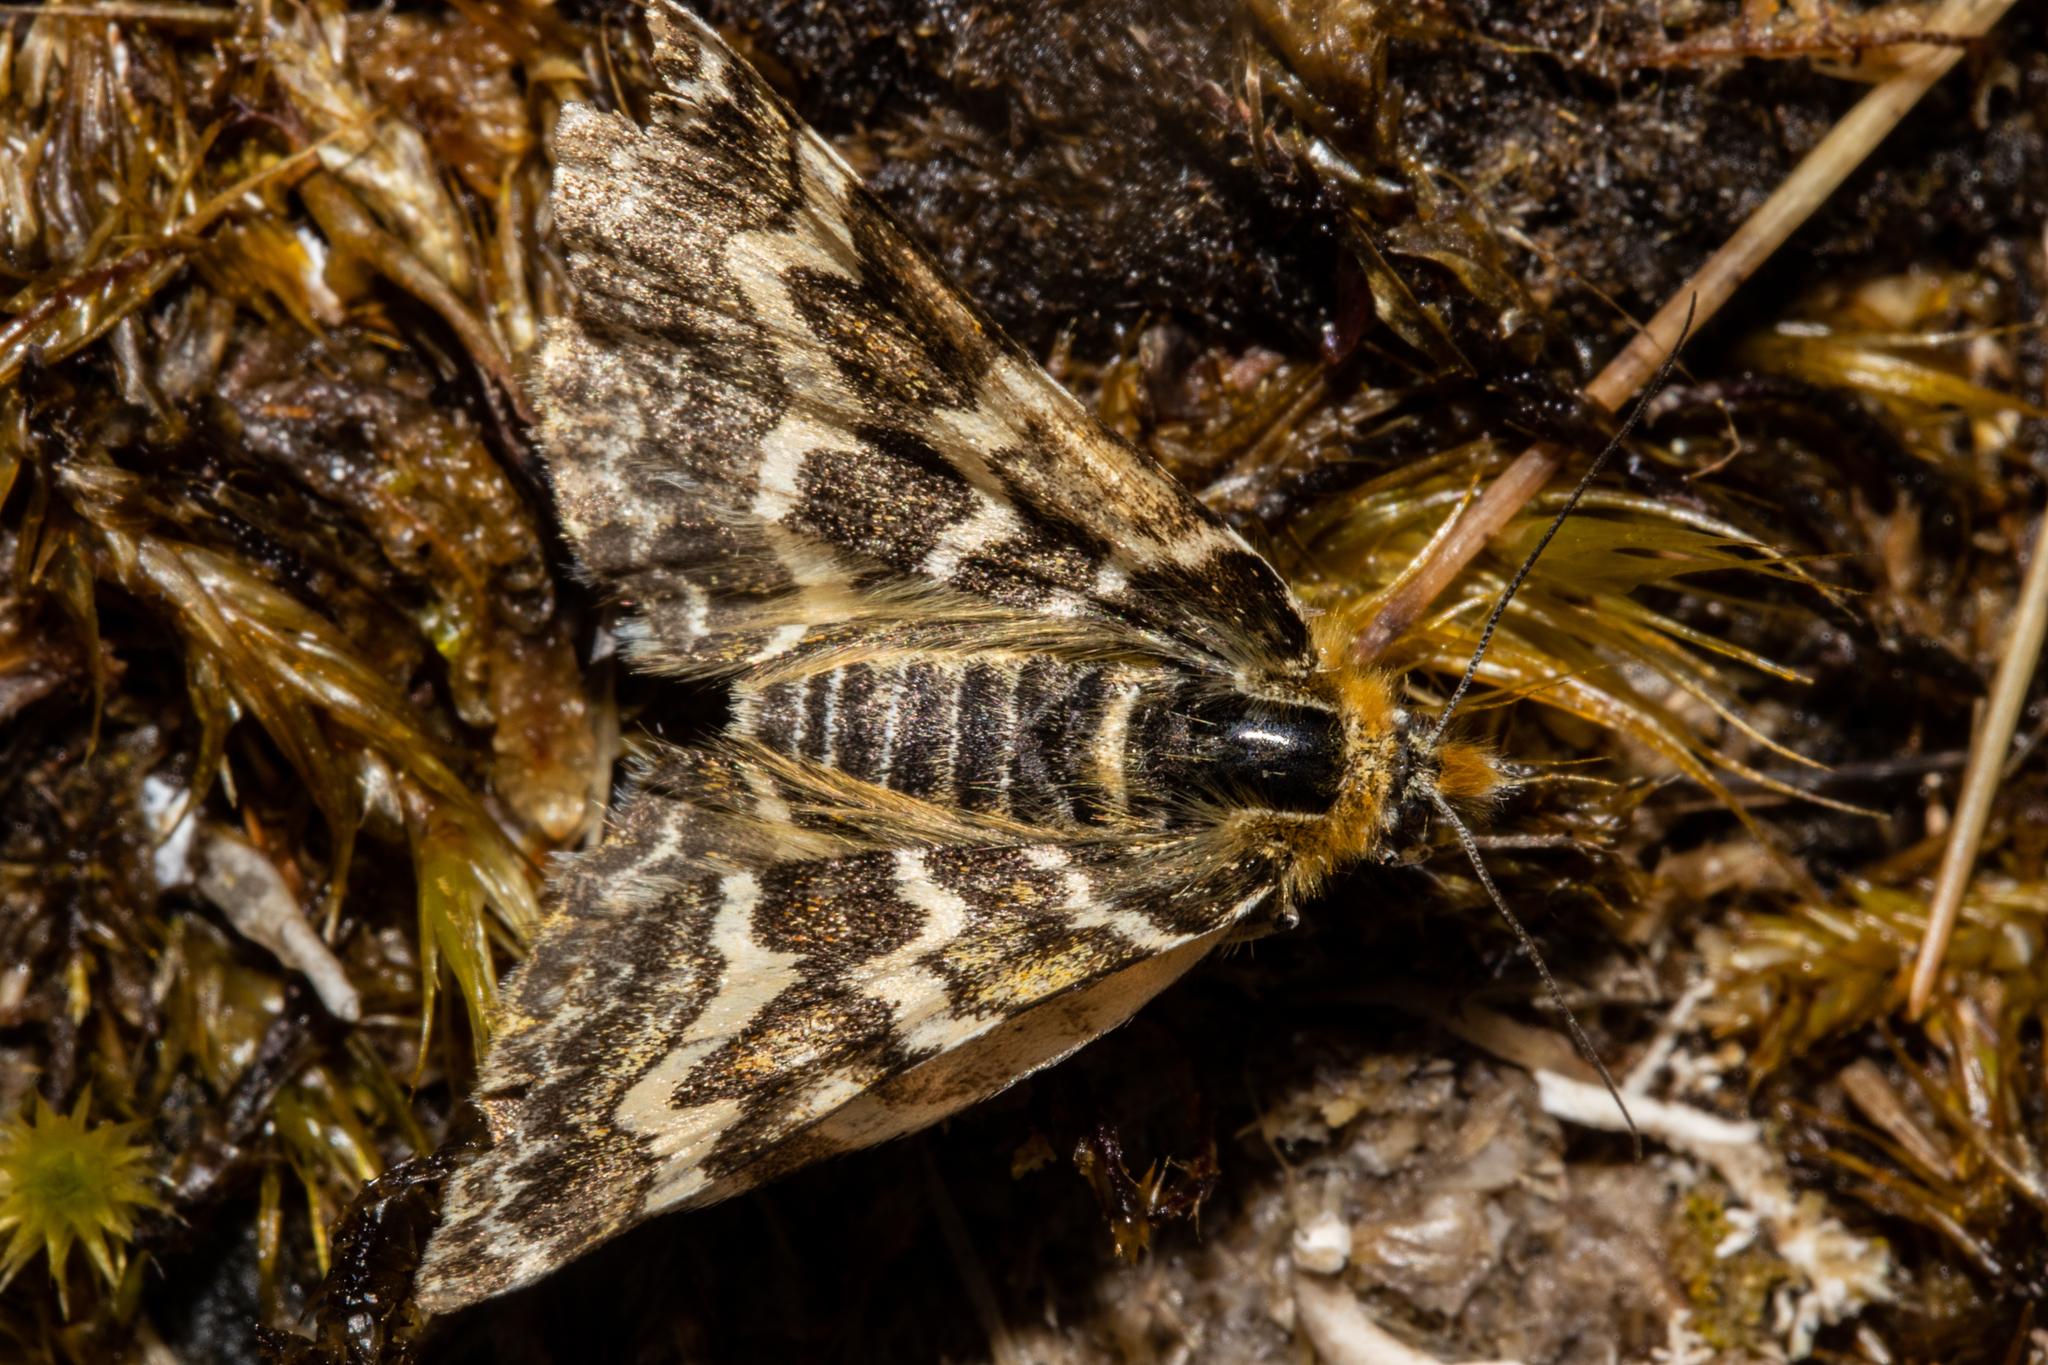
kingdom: Animalia
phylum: Arthropoda
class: Insecta
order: Lepidoptera
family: Geometridae
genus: Dasyuris
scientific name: Dasyuris callicrena
